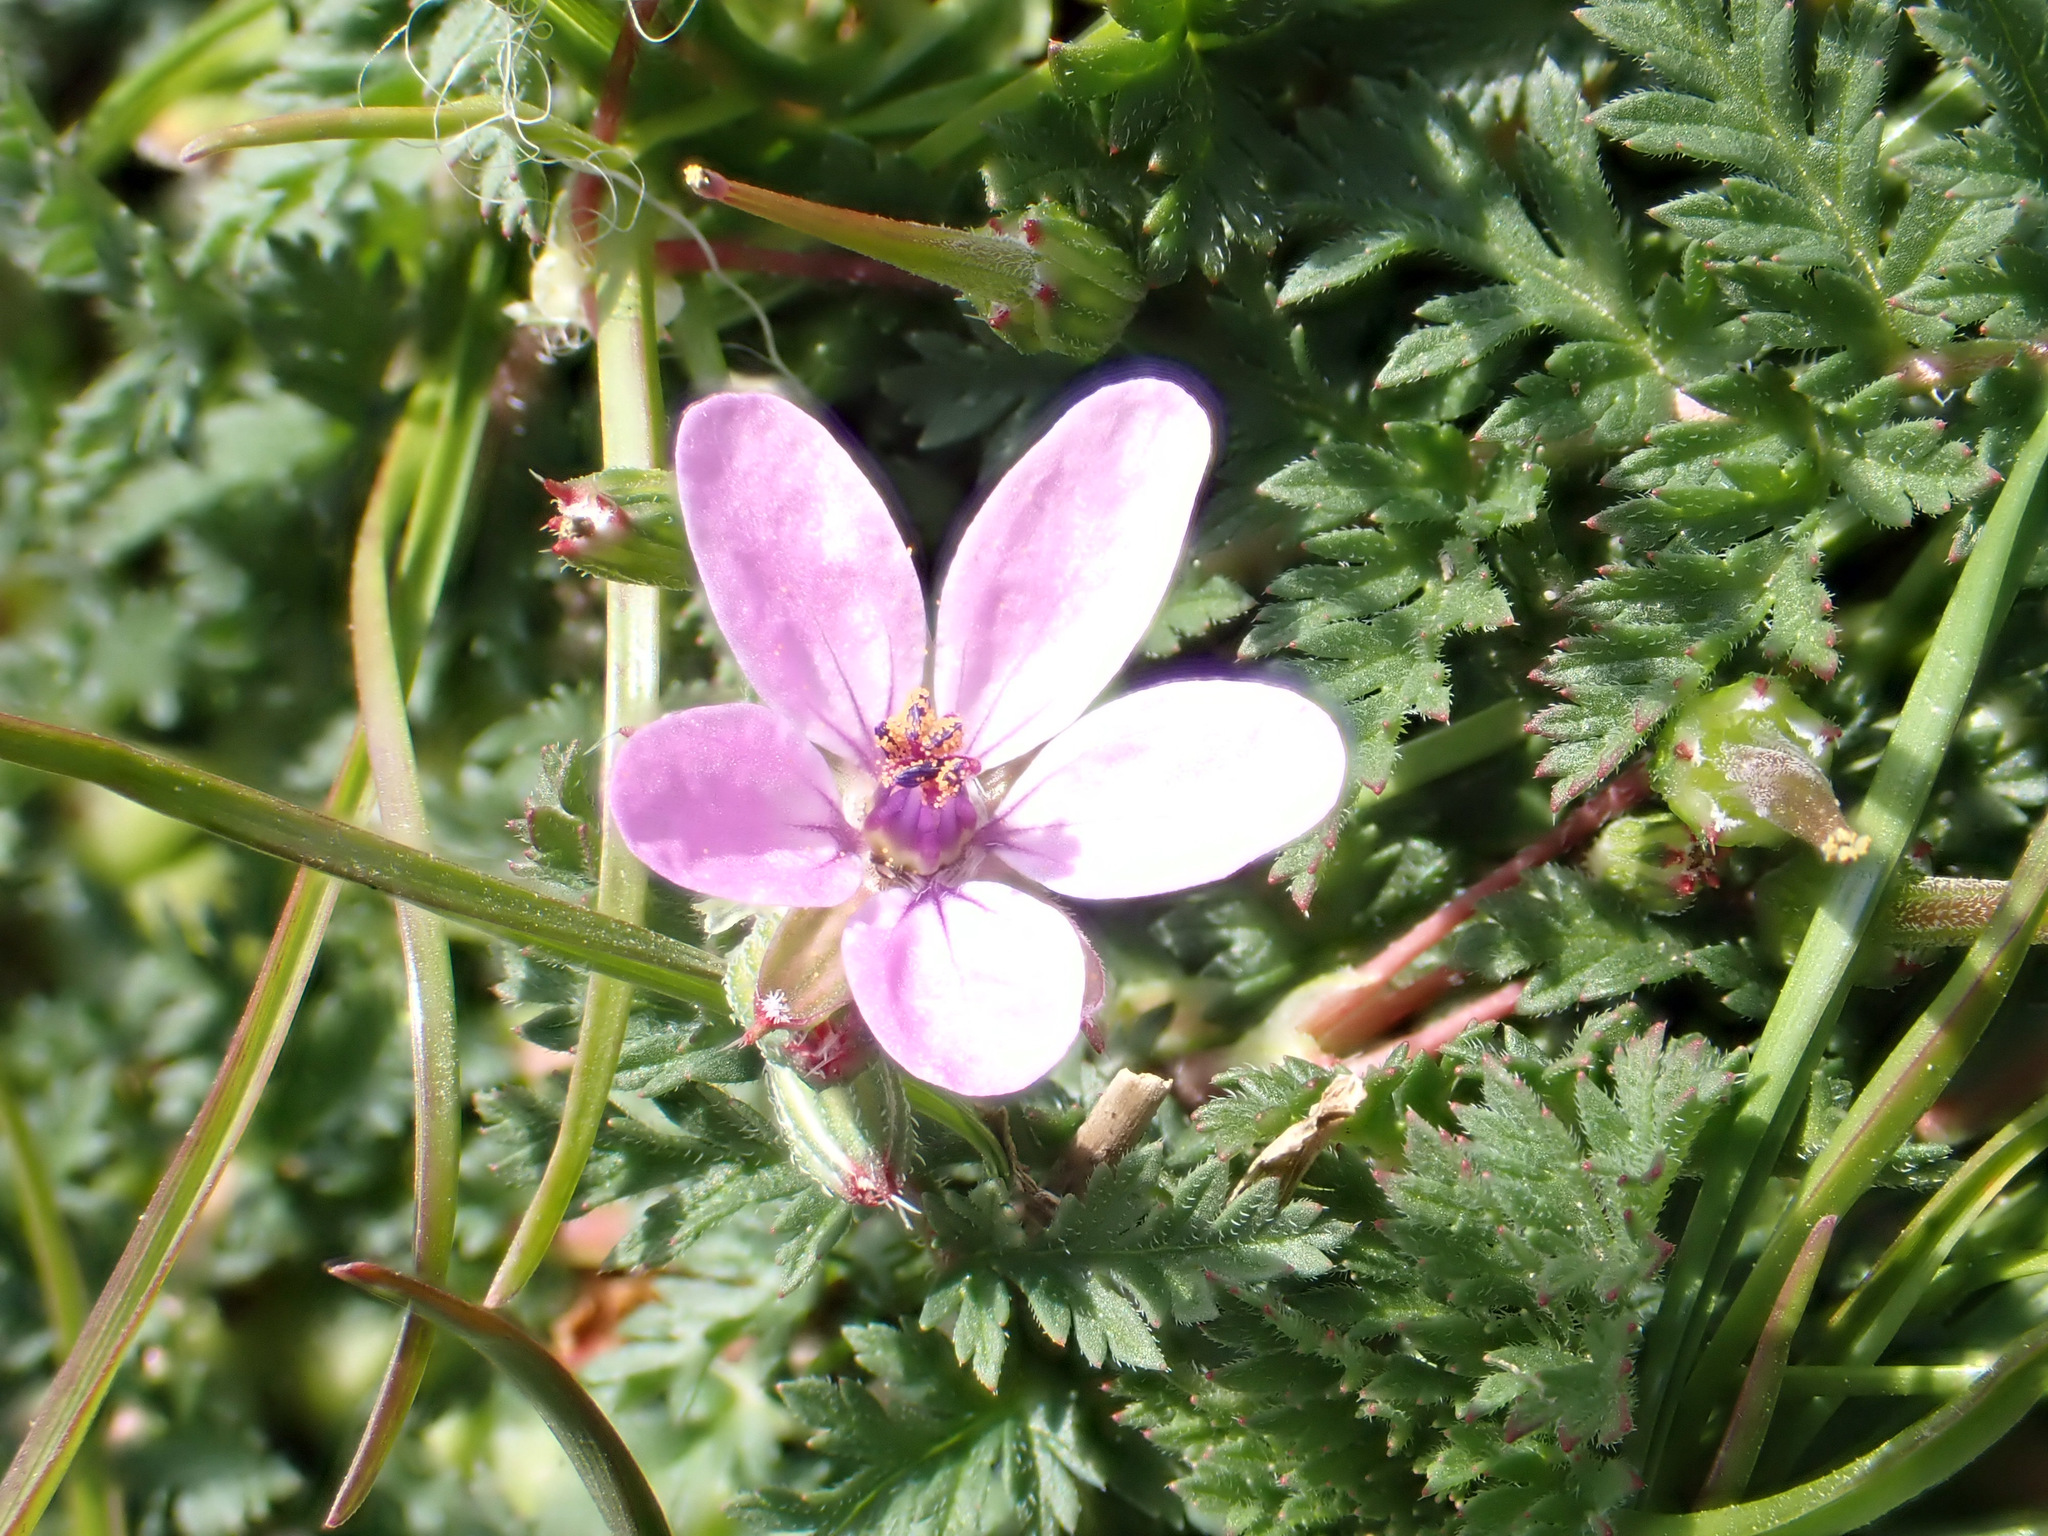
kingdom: Plantae
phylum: Tracheophyta
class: Magnoliopsida
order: Geraniales
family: Geraniaceae
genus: Erodium
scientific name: Erodium cicutarium
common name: Common stork's-bill
